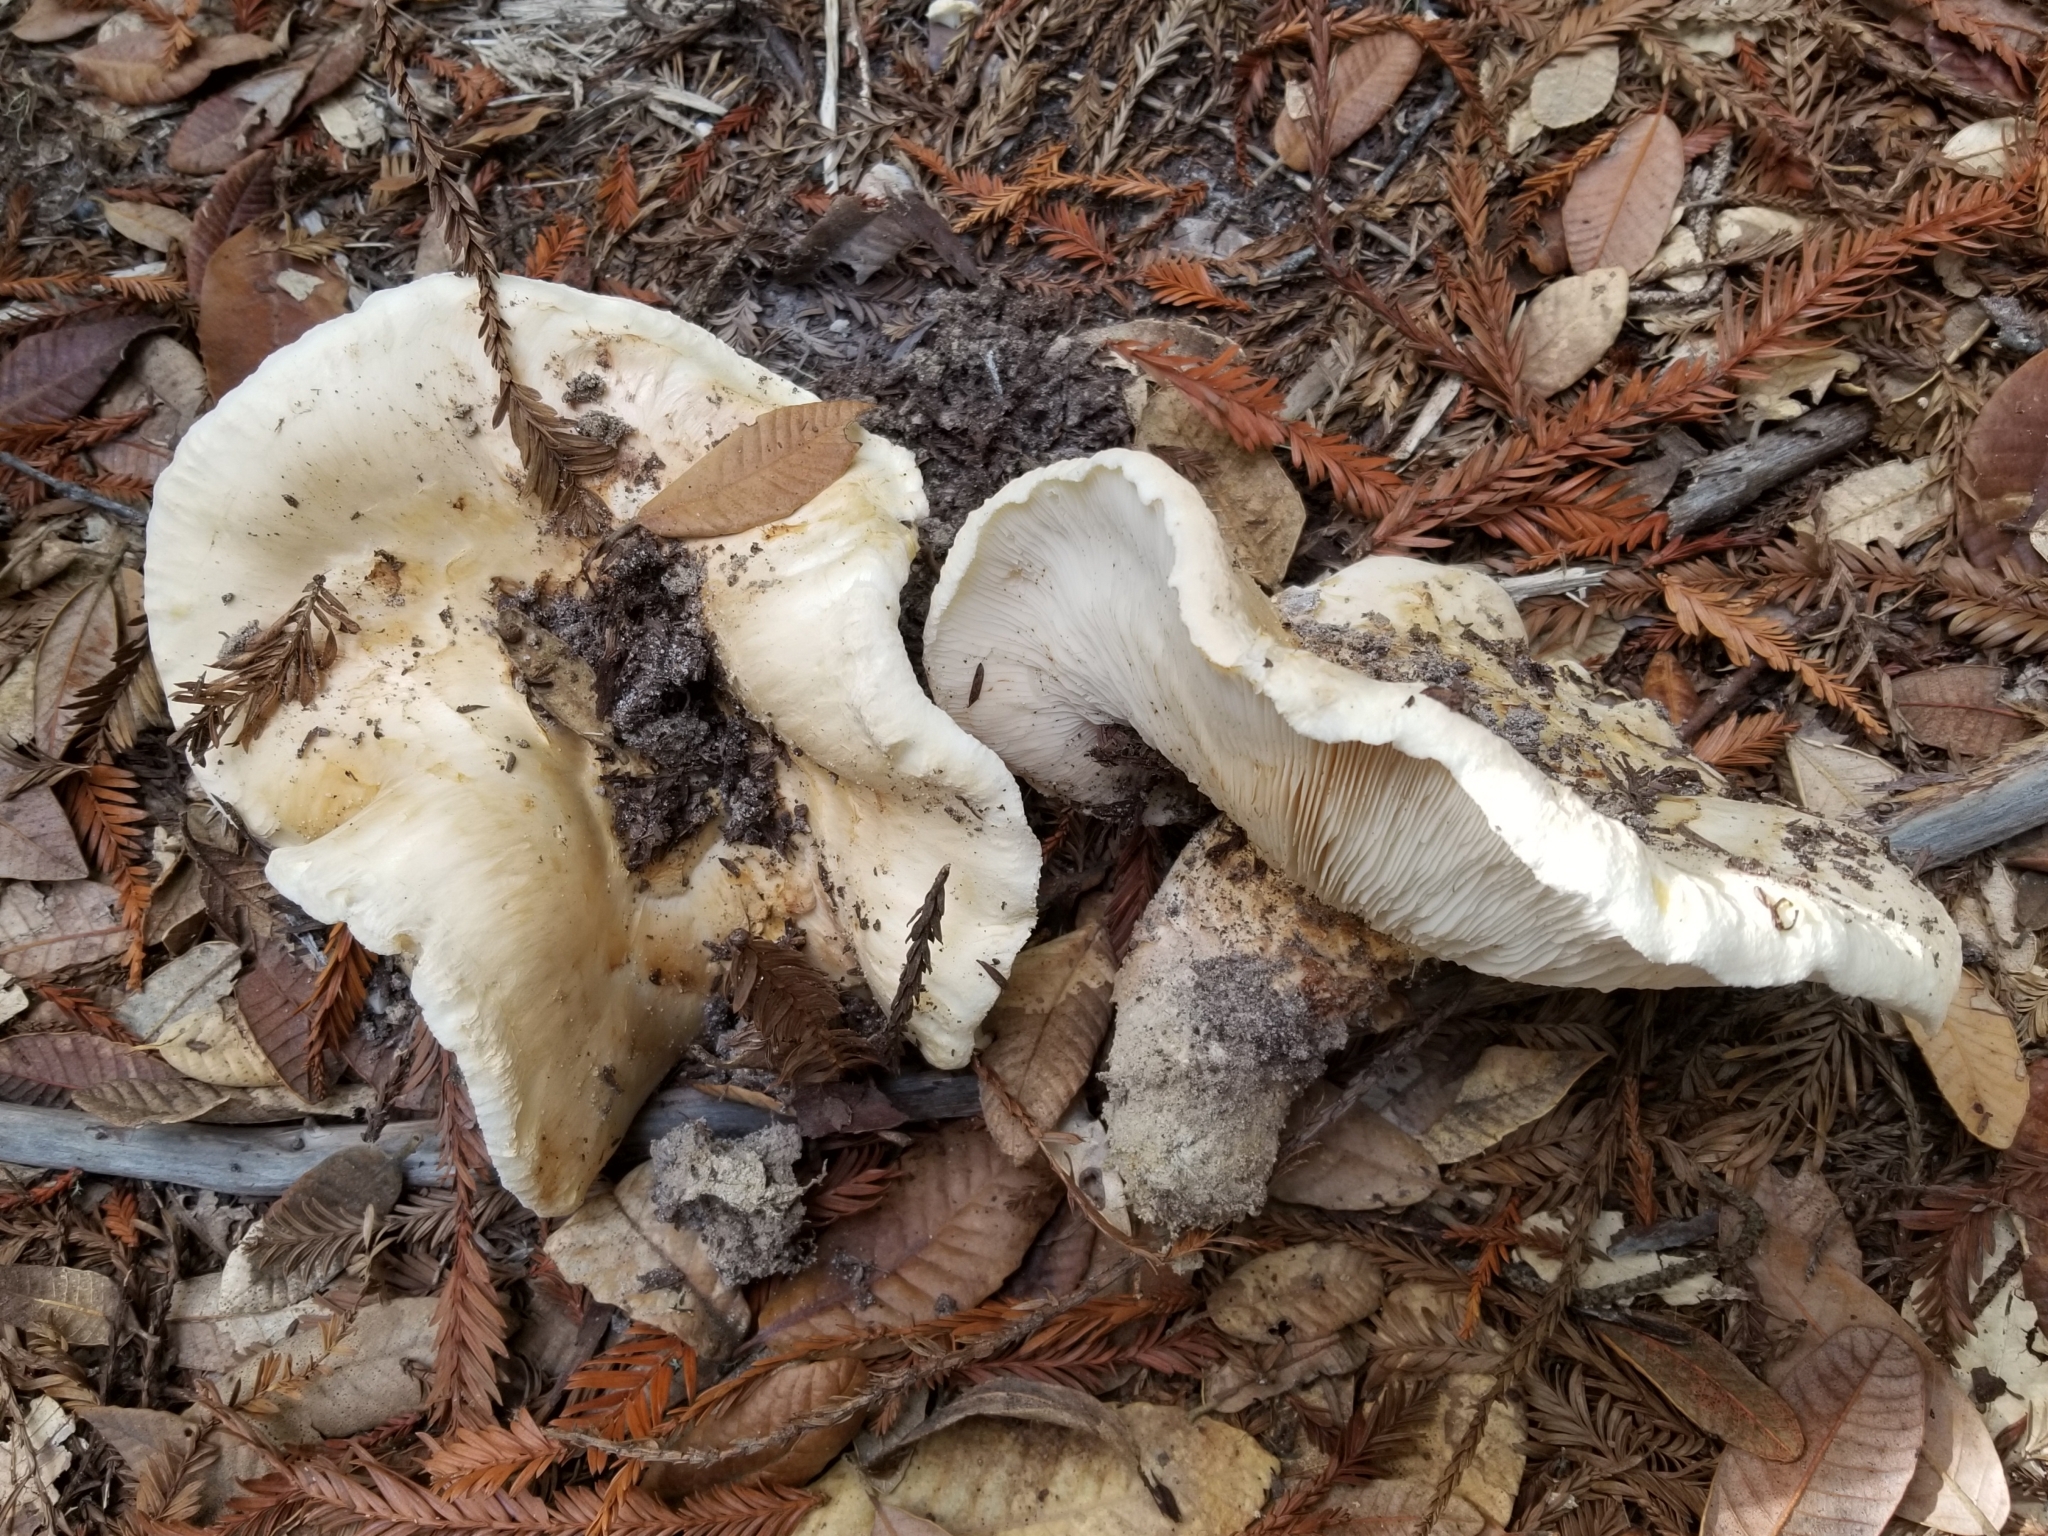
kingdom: Fungi
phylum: Basidiomycota
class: Agaricomycetes
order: Agaricales
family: Tricholomataceae
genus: Tricholoma
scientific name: Tricholoma murrillianum
